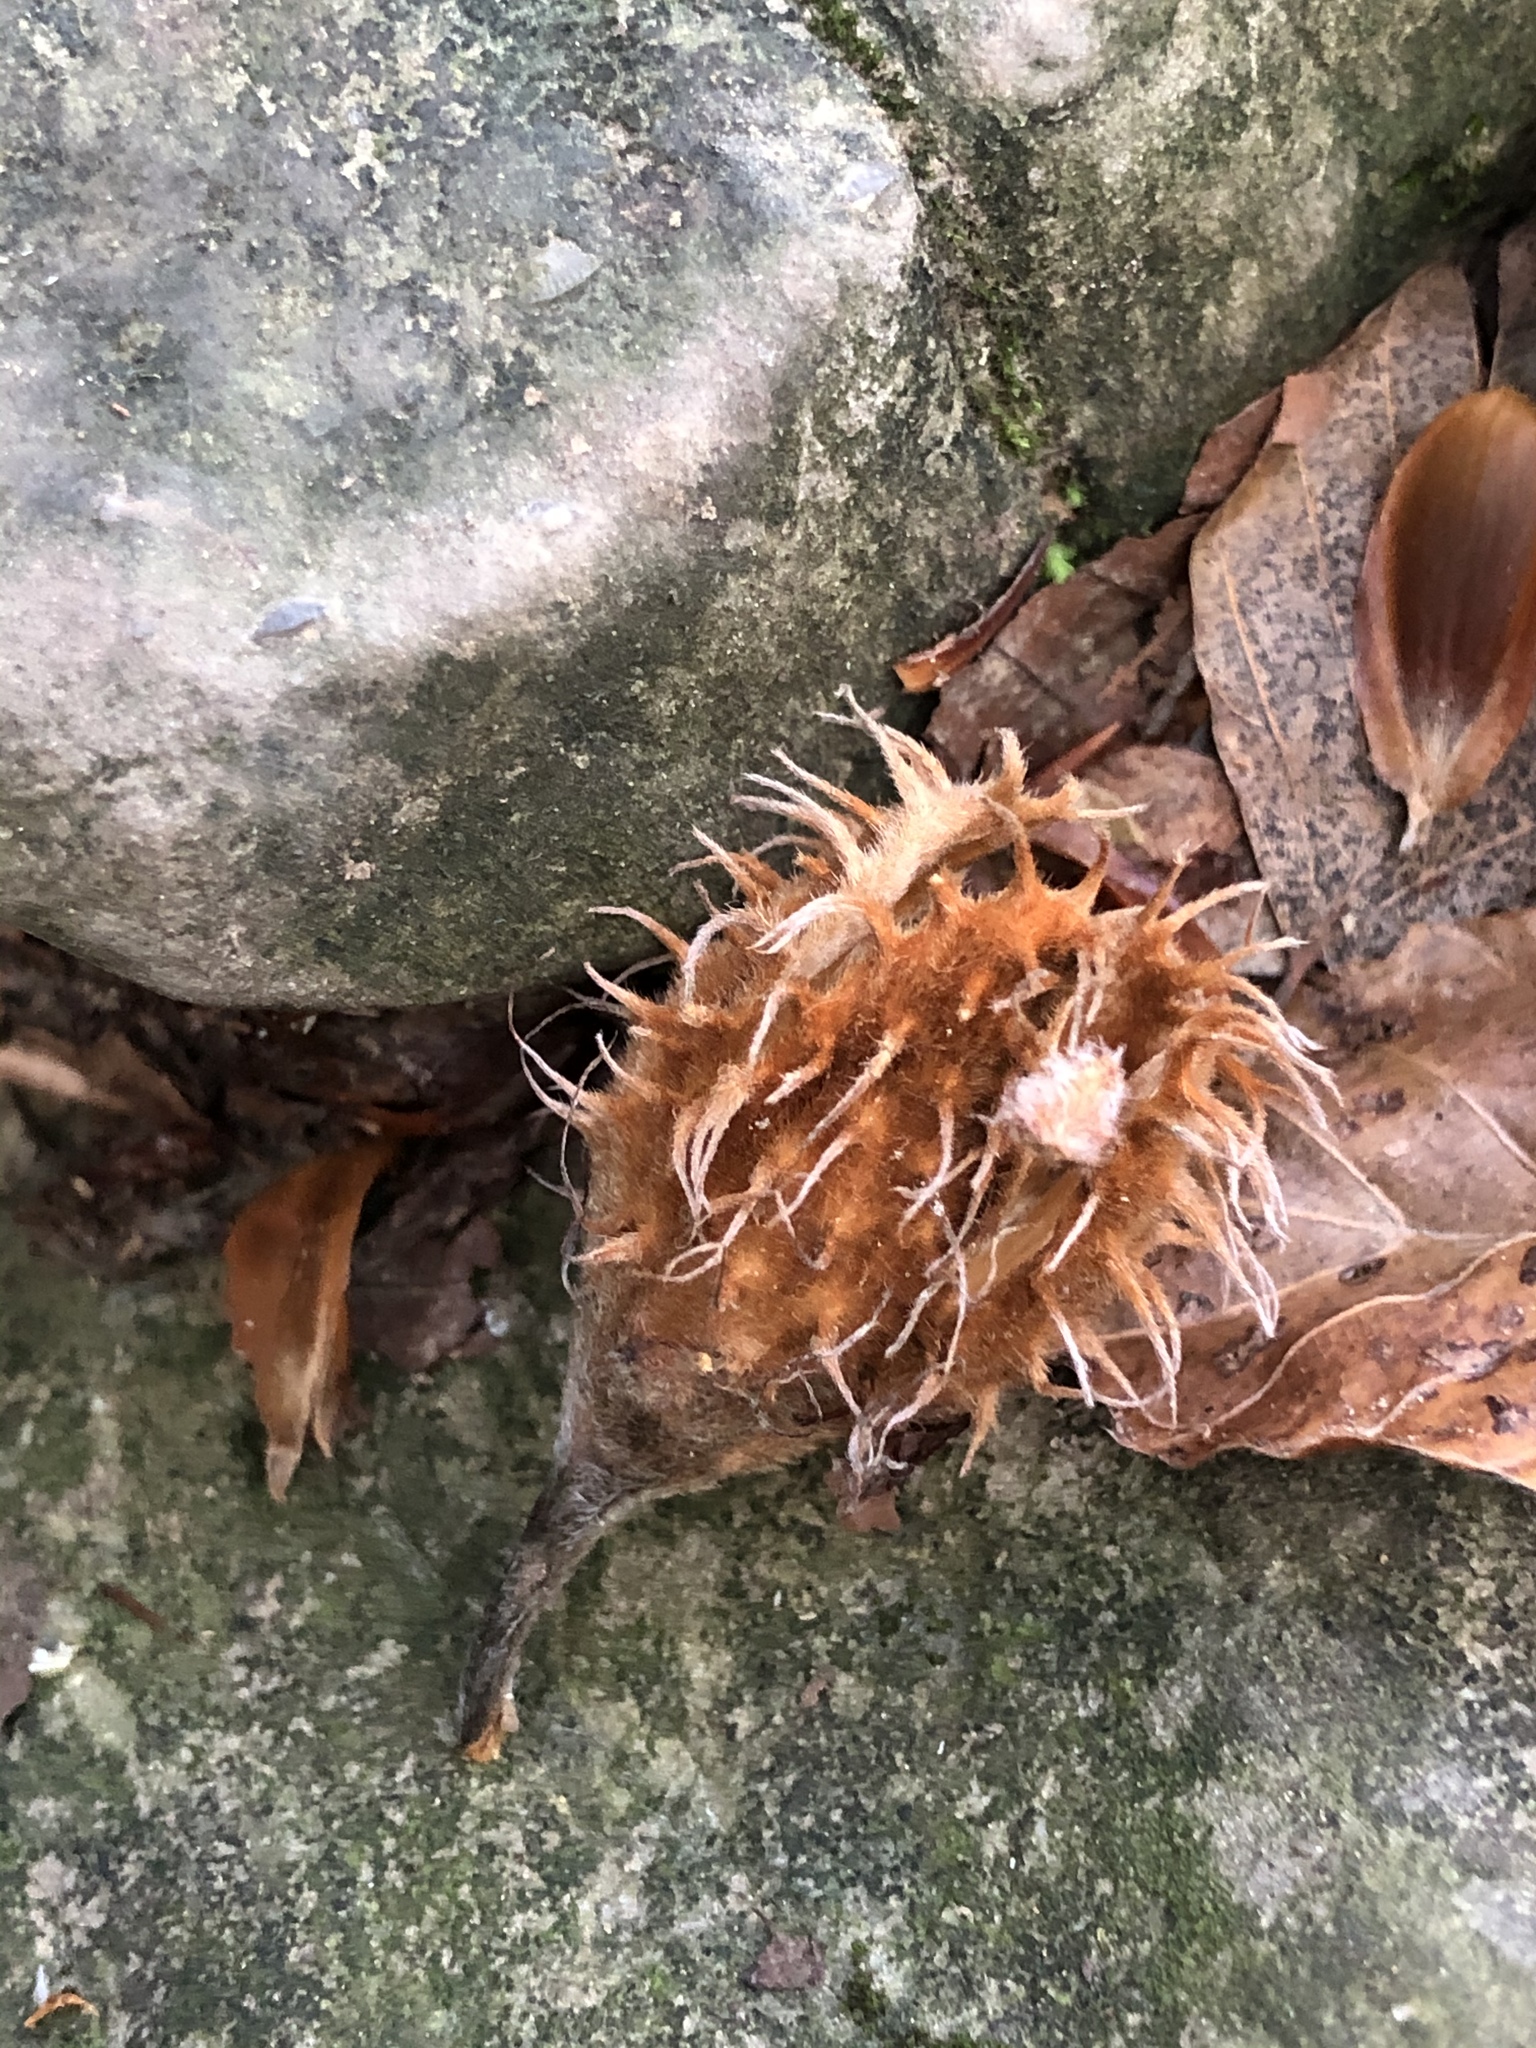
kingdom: Plantae
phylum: Tracheophyta
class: Magnoliopsida
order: Fagales
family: Fagaceae
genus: Fagus
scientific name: Fagus sylvatica
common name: Beech
